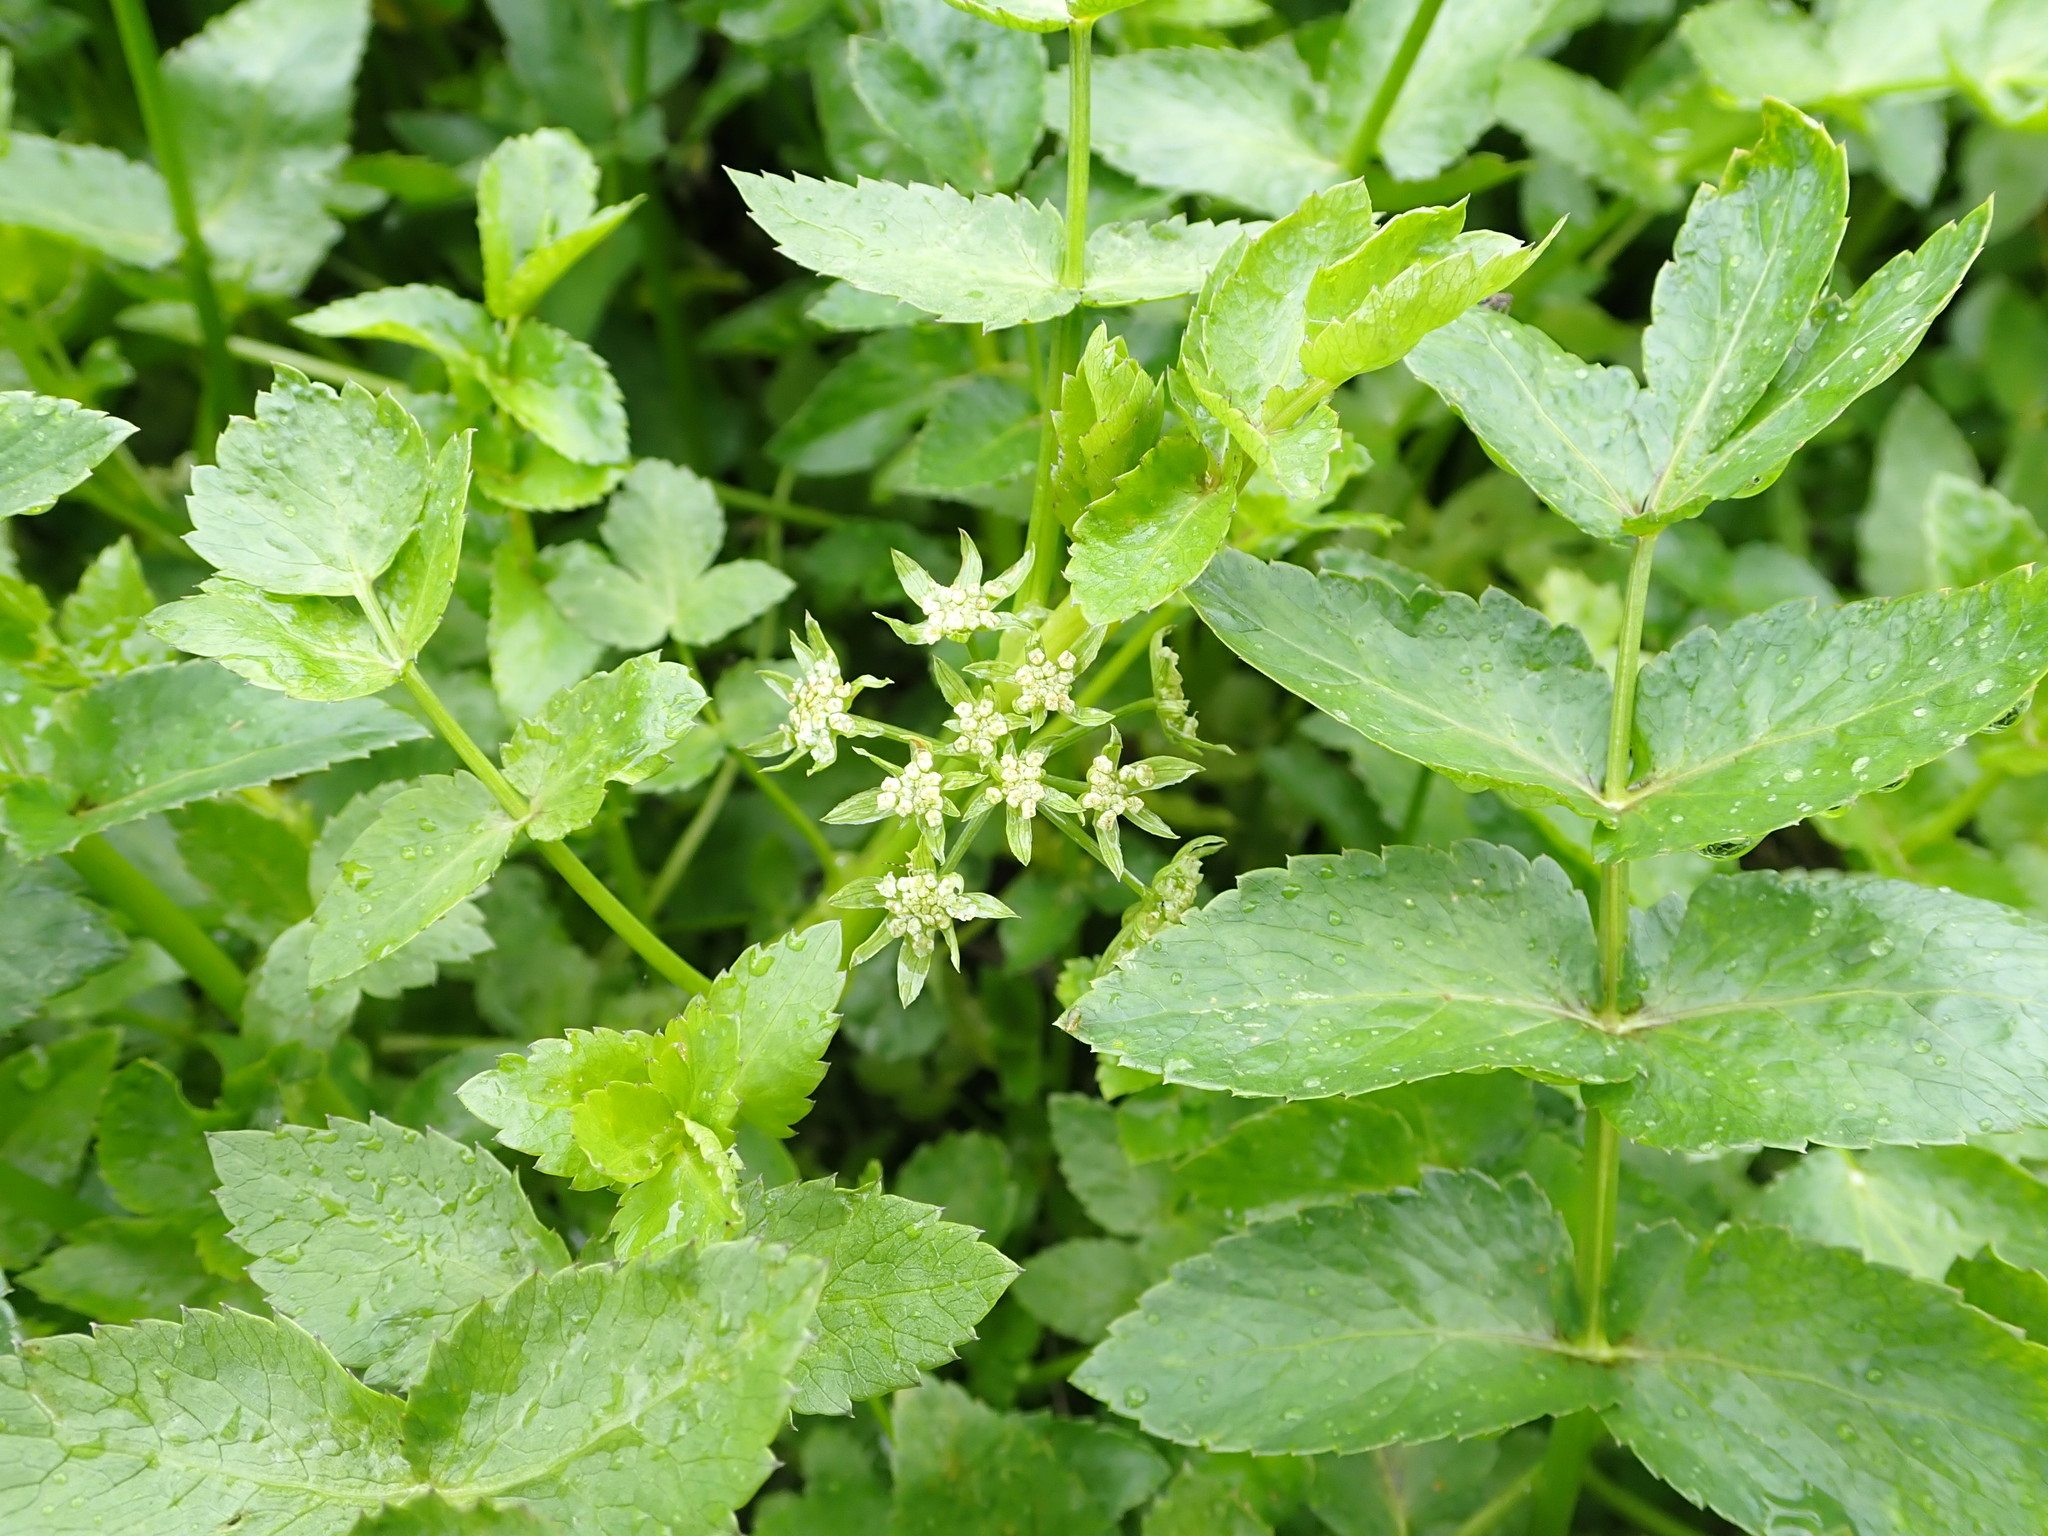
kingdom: Plantae
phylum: Tracheophyta
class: Magnoliopsida
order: Apiales
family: Apiaceae
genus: Helosciadium
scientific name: Helosciadium nodiflorum
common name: Fool's-watercress
